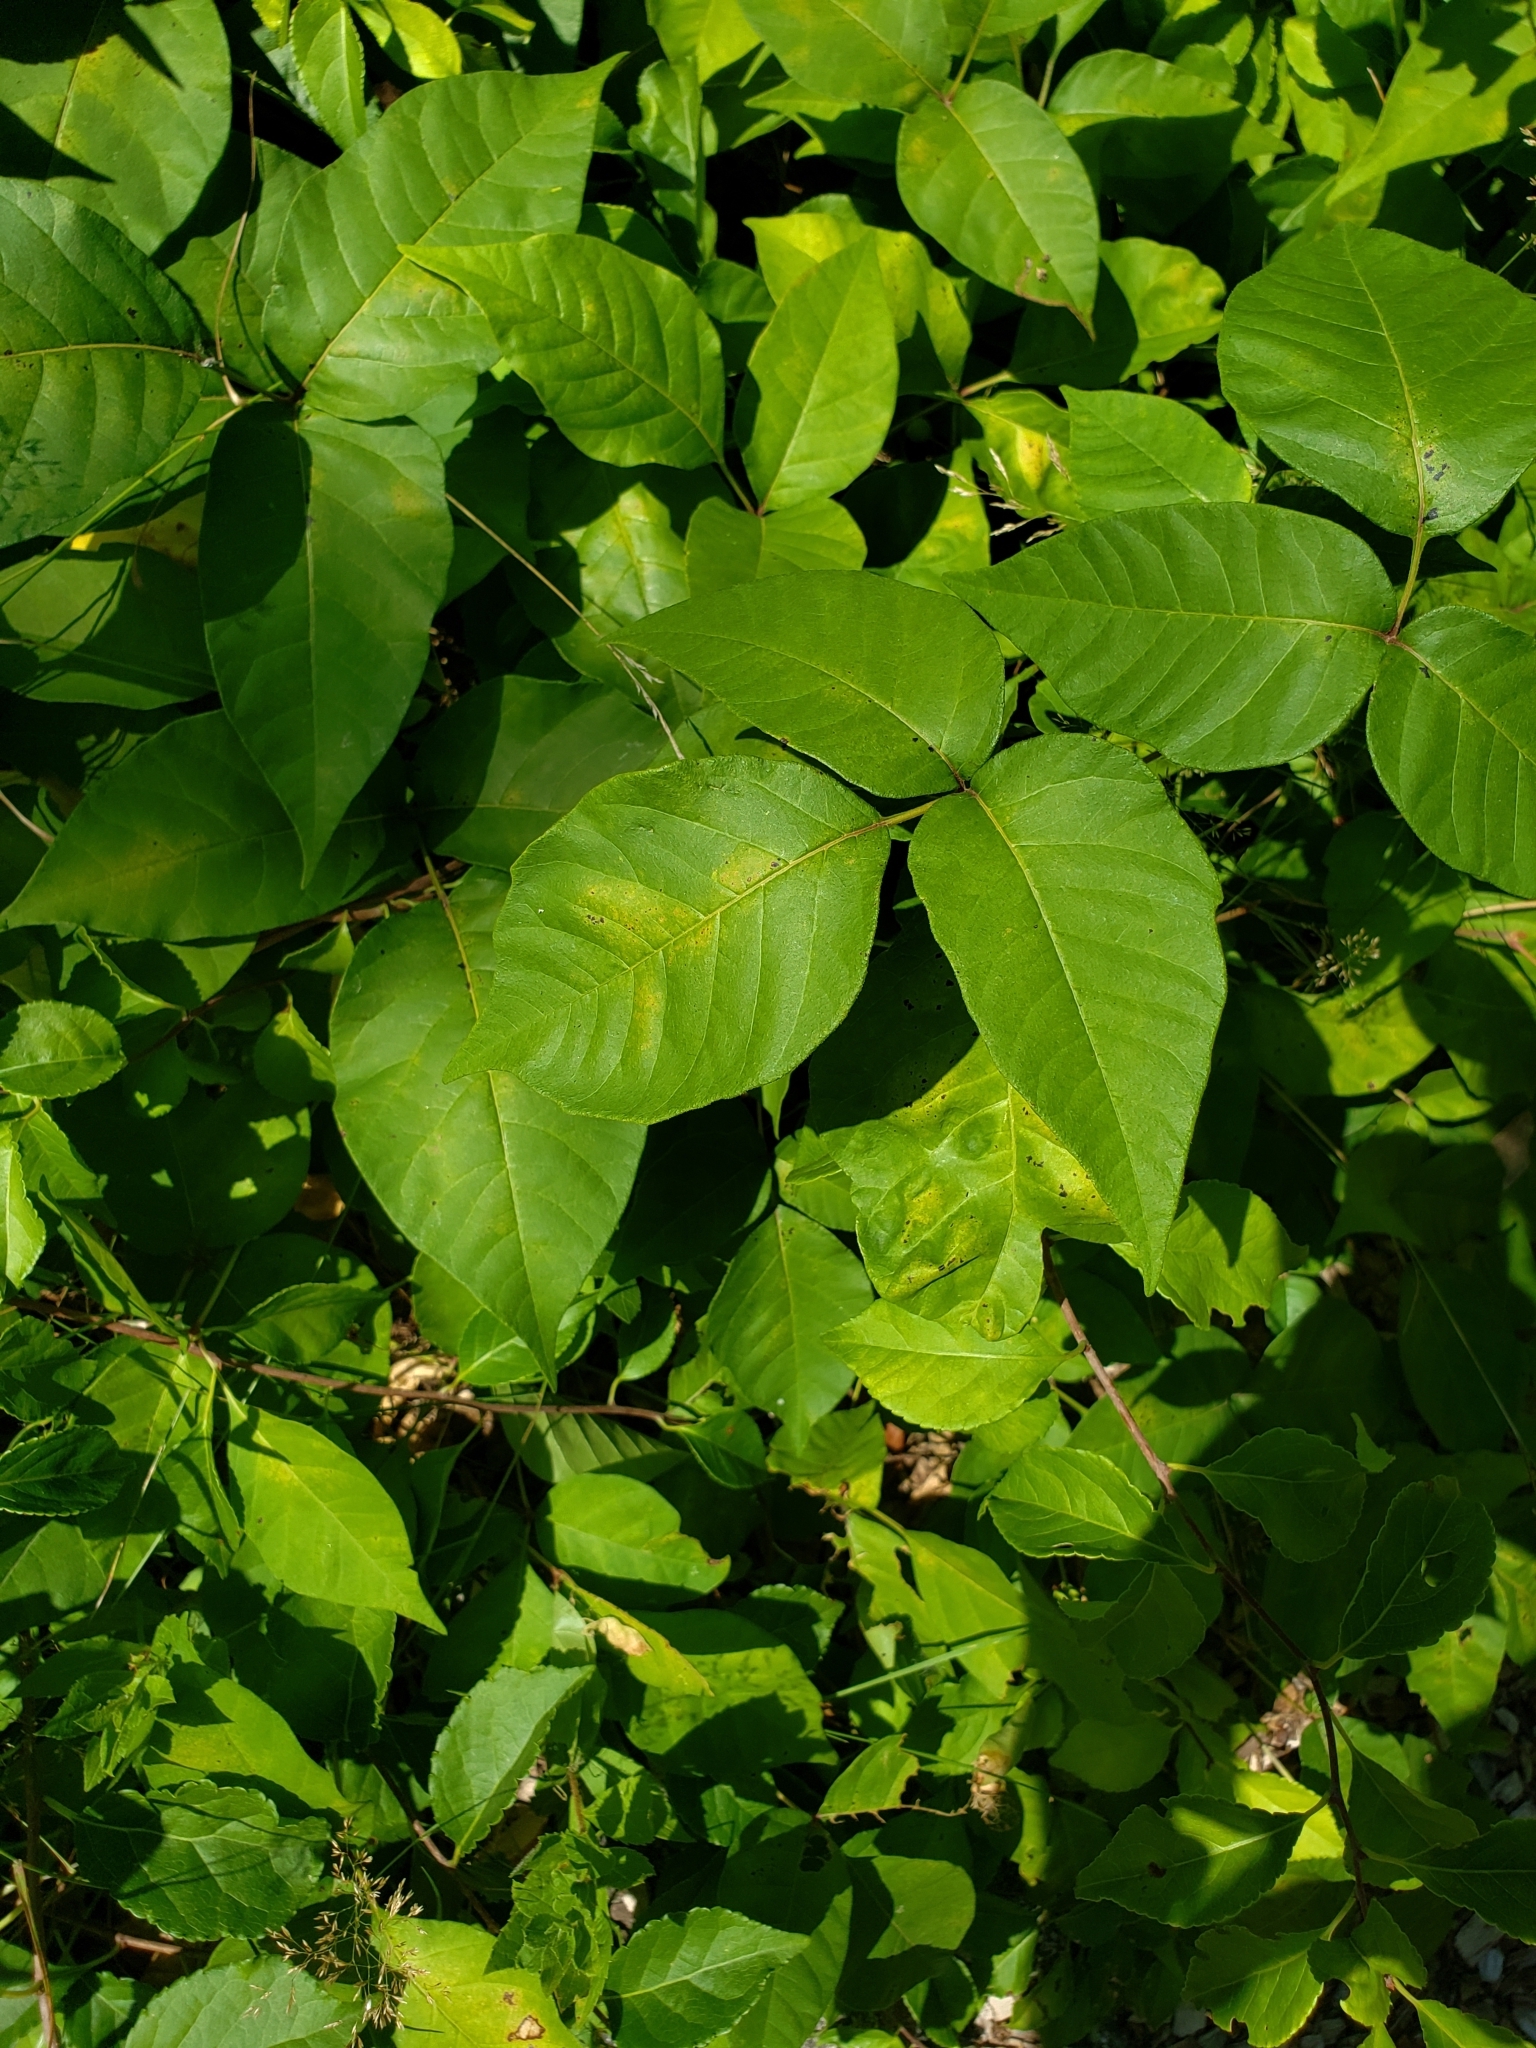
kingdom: Plantae
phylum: Tracheophyta
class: Magnoliopsida
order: Sapindales
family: Anacardiaceae
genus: Toxicodendron
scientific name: Toxicodendron radicans
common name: Poison ivy
